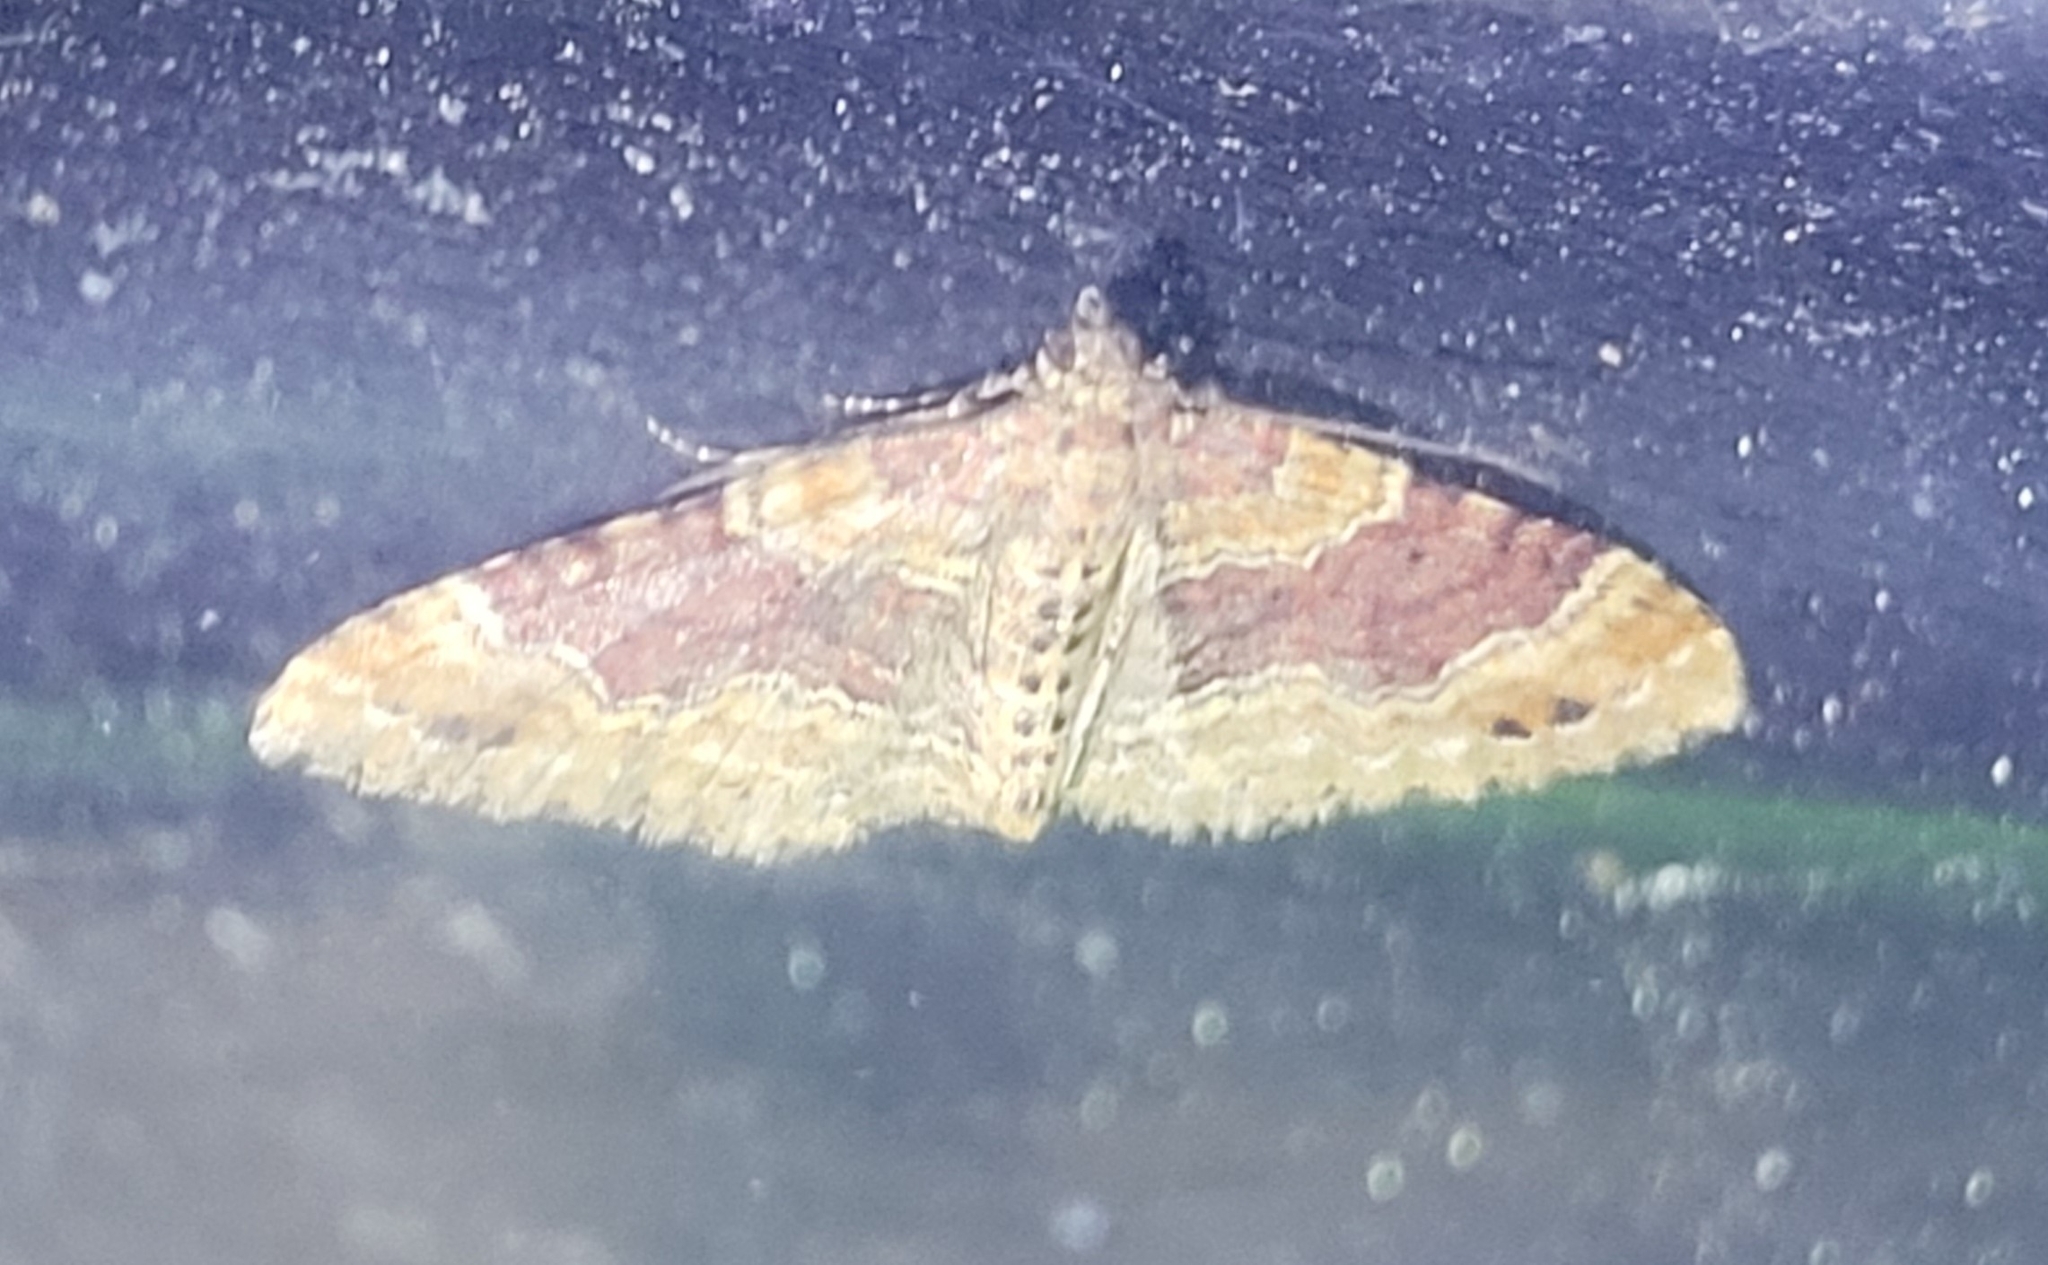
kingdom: Animalia
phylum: Arthropoda
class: Insecta
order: Lepidoptera
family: Geometridae
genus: Xanthorhoe
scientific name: Xanthorhoe spadicearia
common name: Red twin-spot carpet
